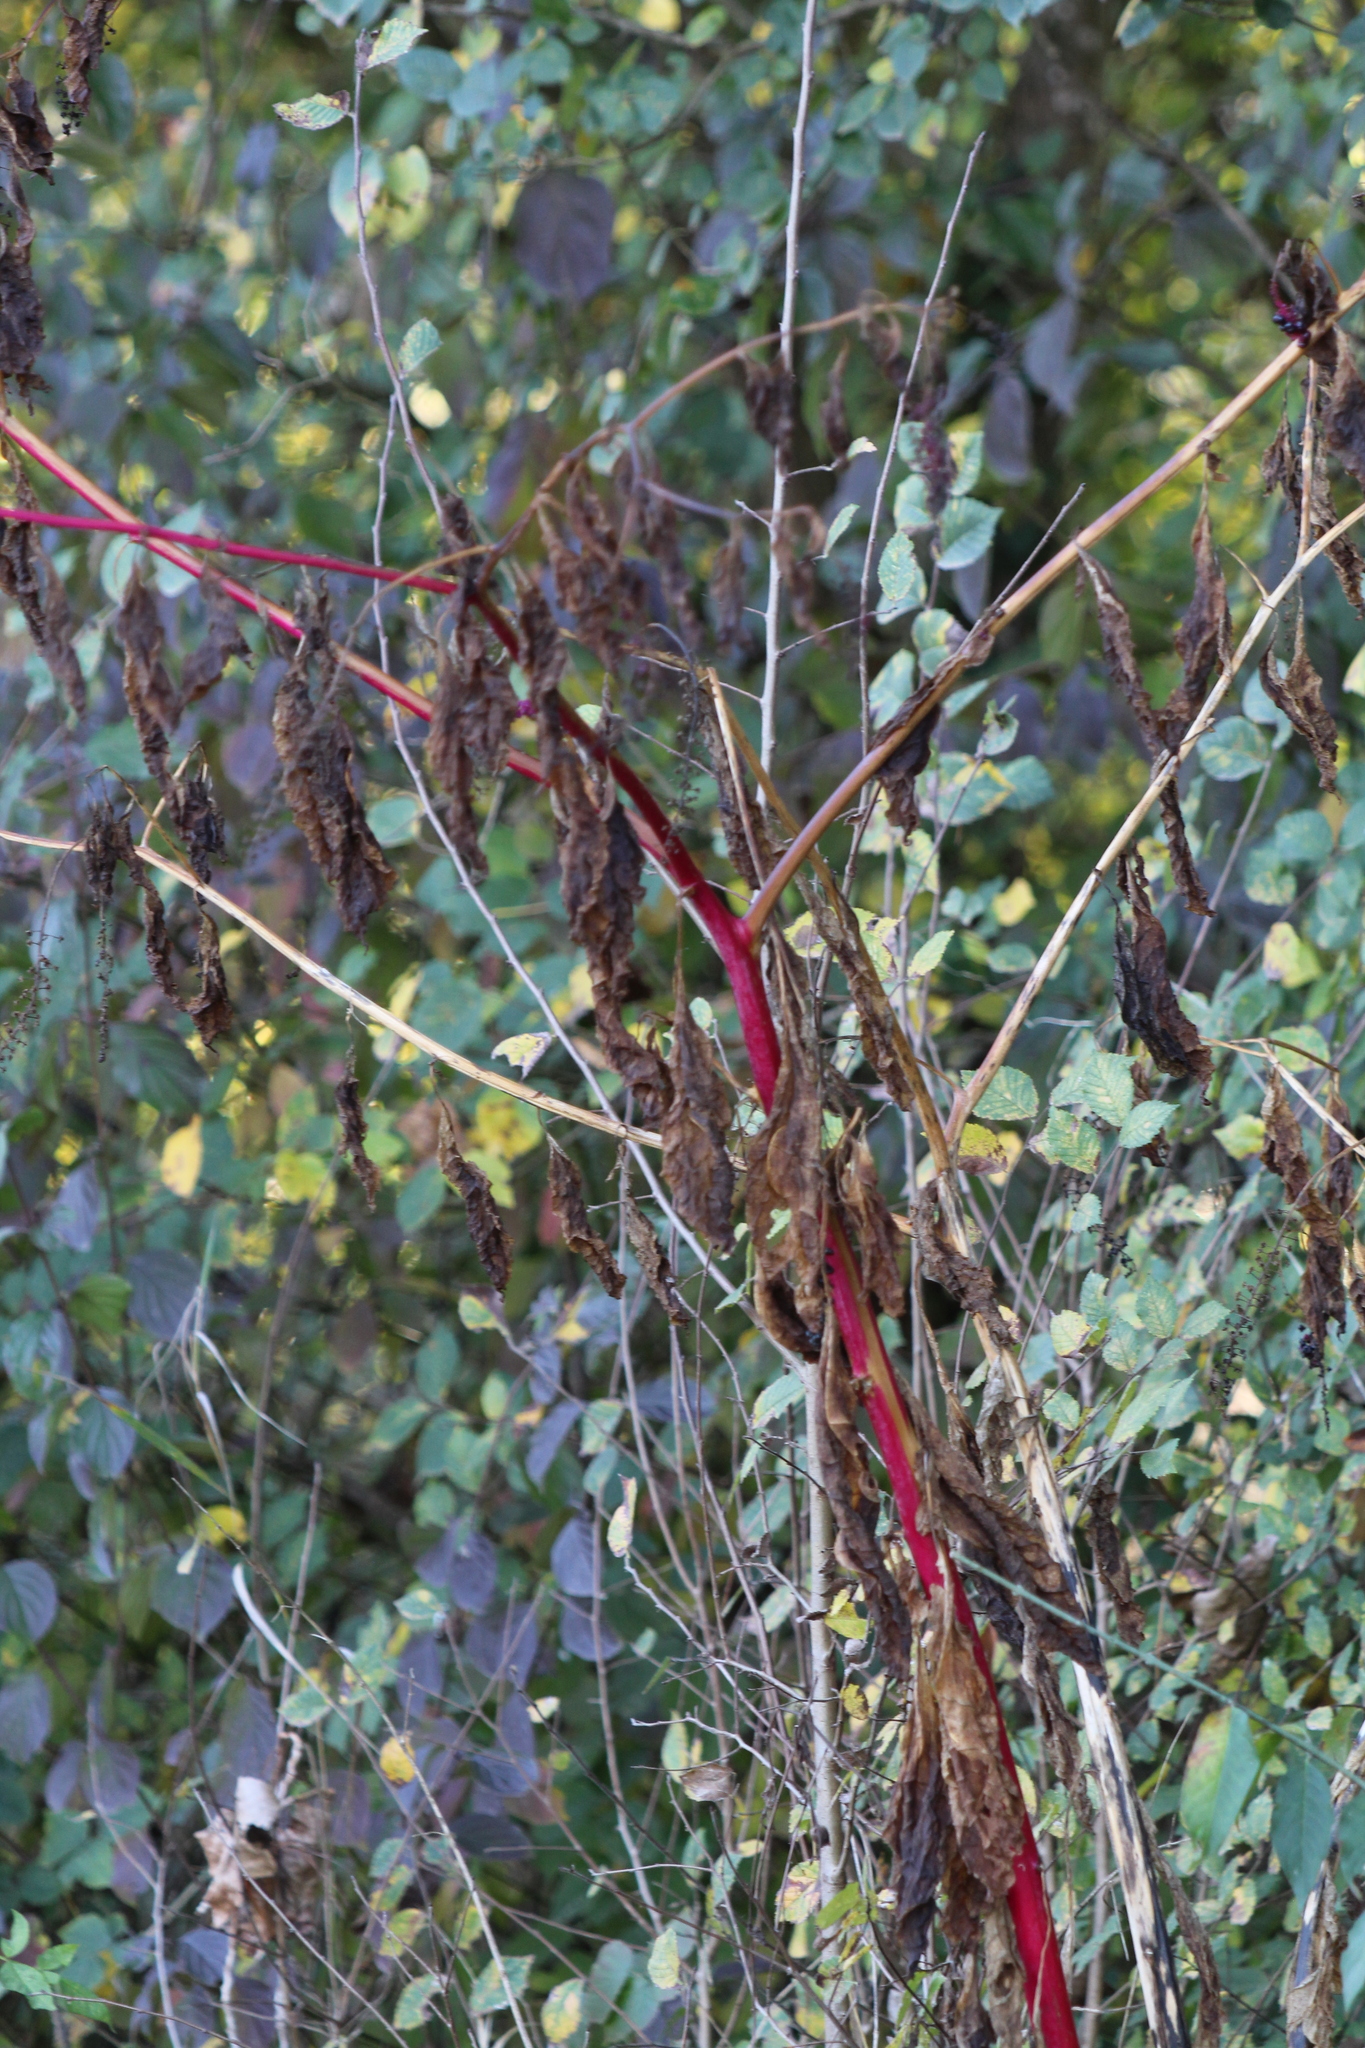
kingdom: Plantae
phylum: Tracheophyta
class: Magnoliopsida
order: Caryophyllales
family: Phytolaccaceae
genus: Phytolacca
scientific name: Phytolacca americana
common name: American pokeweed
